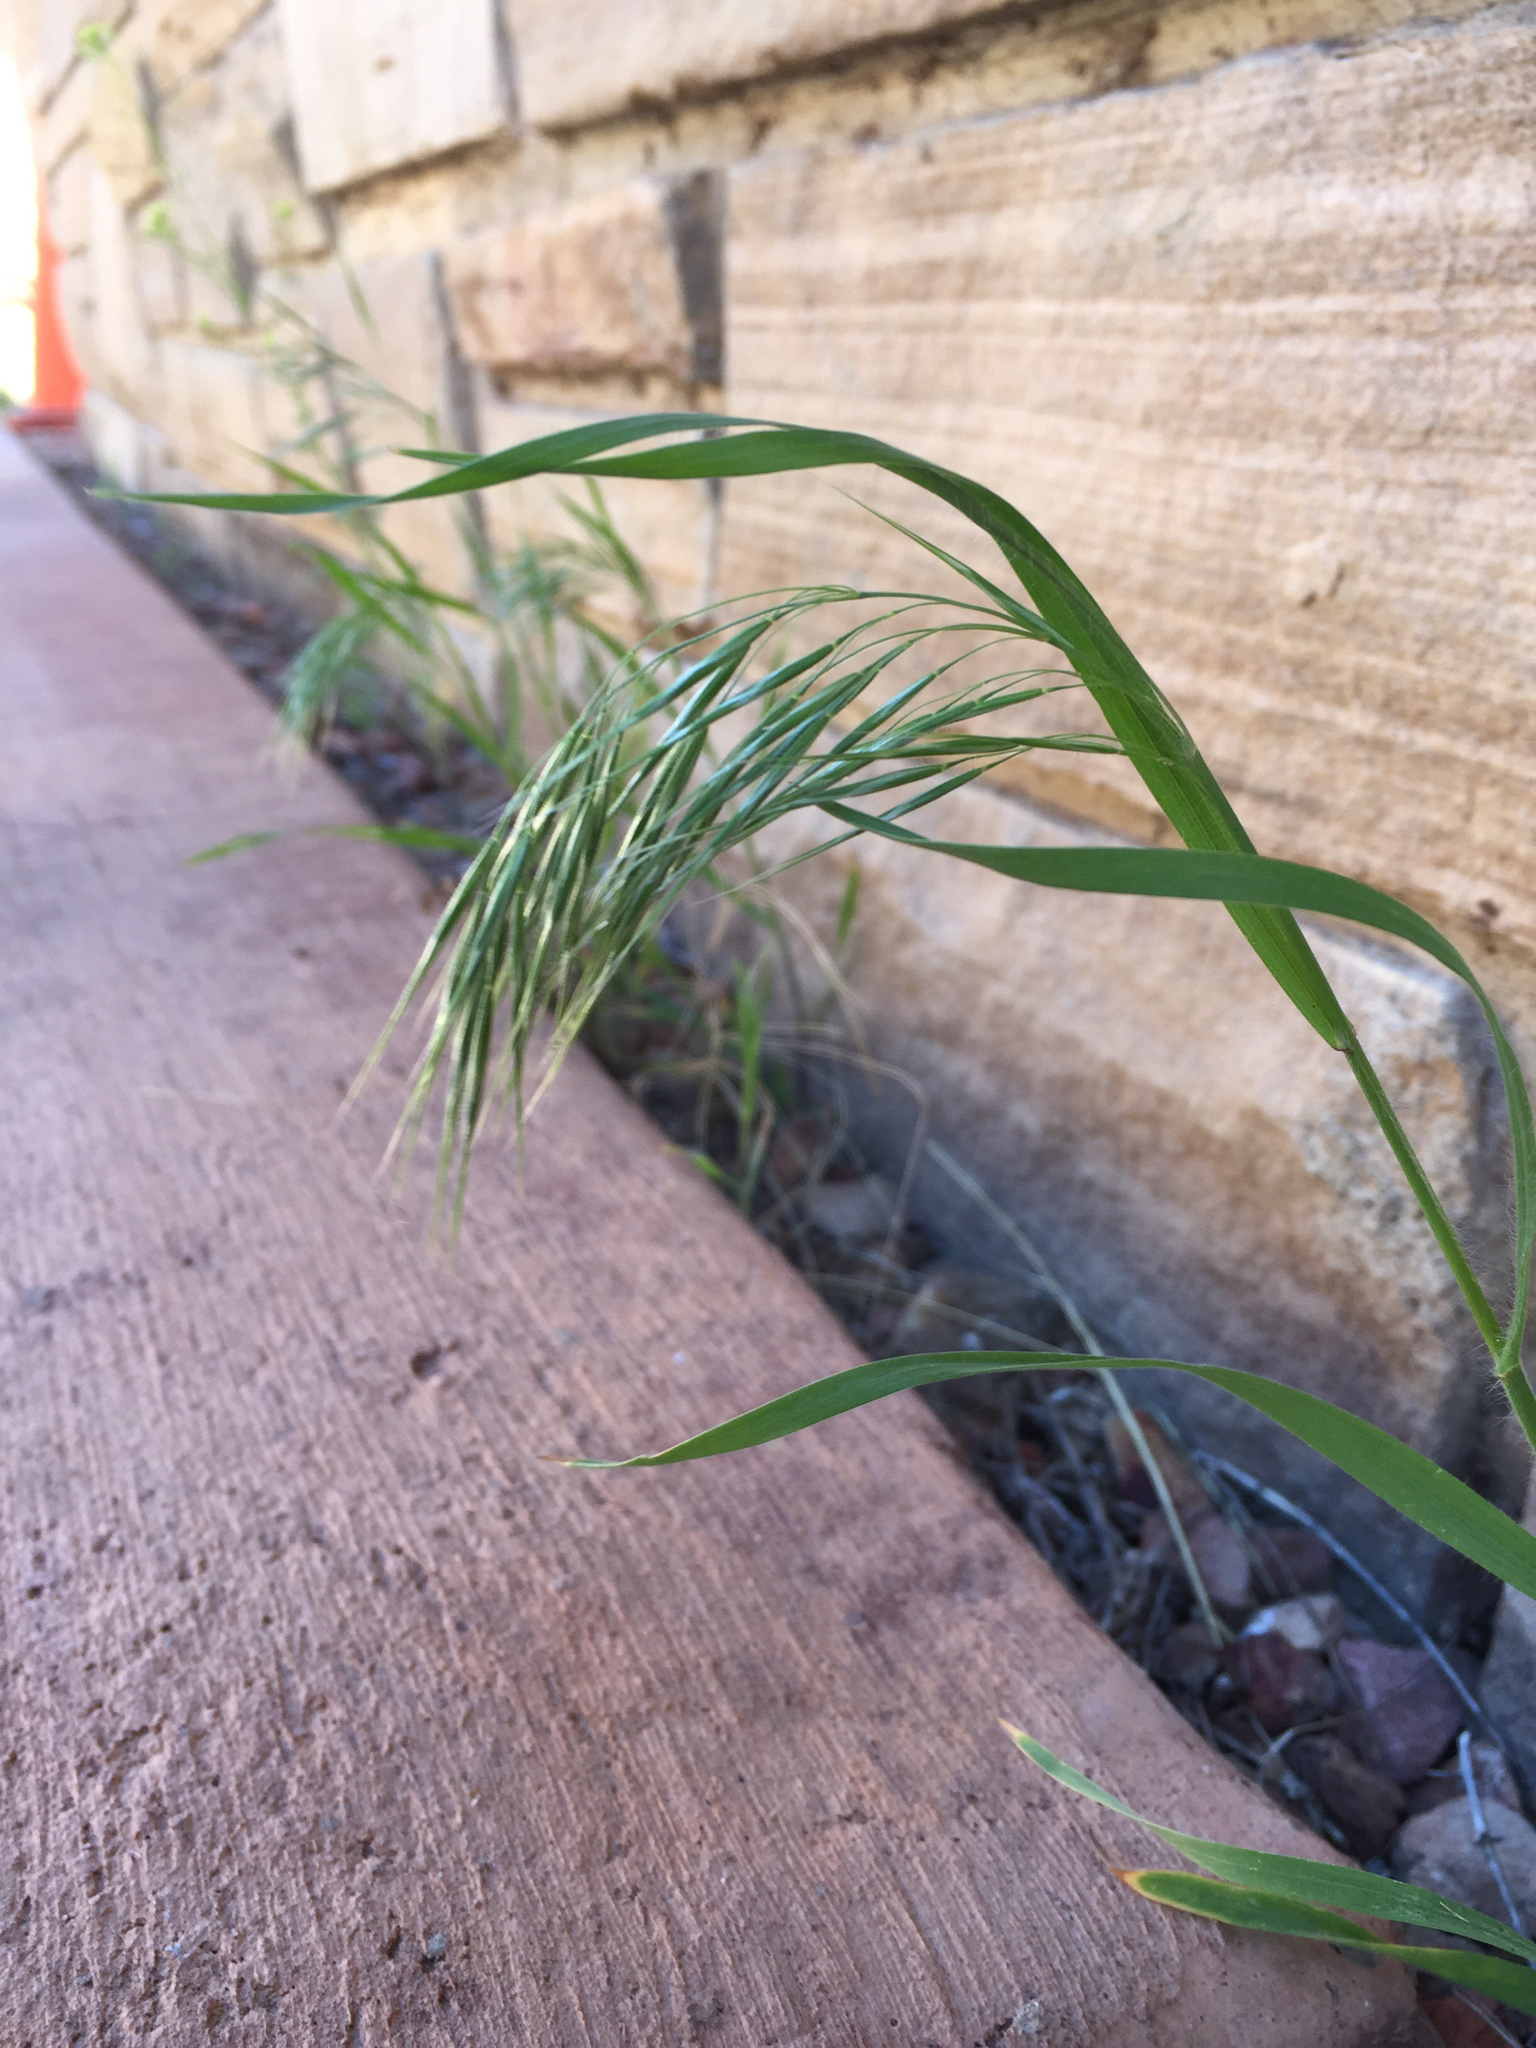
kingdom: Plantae
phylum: Tracheophyta
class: Liliopsida
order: Poales
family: Poaceae
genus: Bromus
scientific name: Bromus tectorum
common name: Cheatgrass
